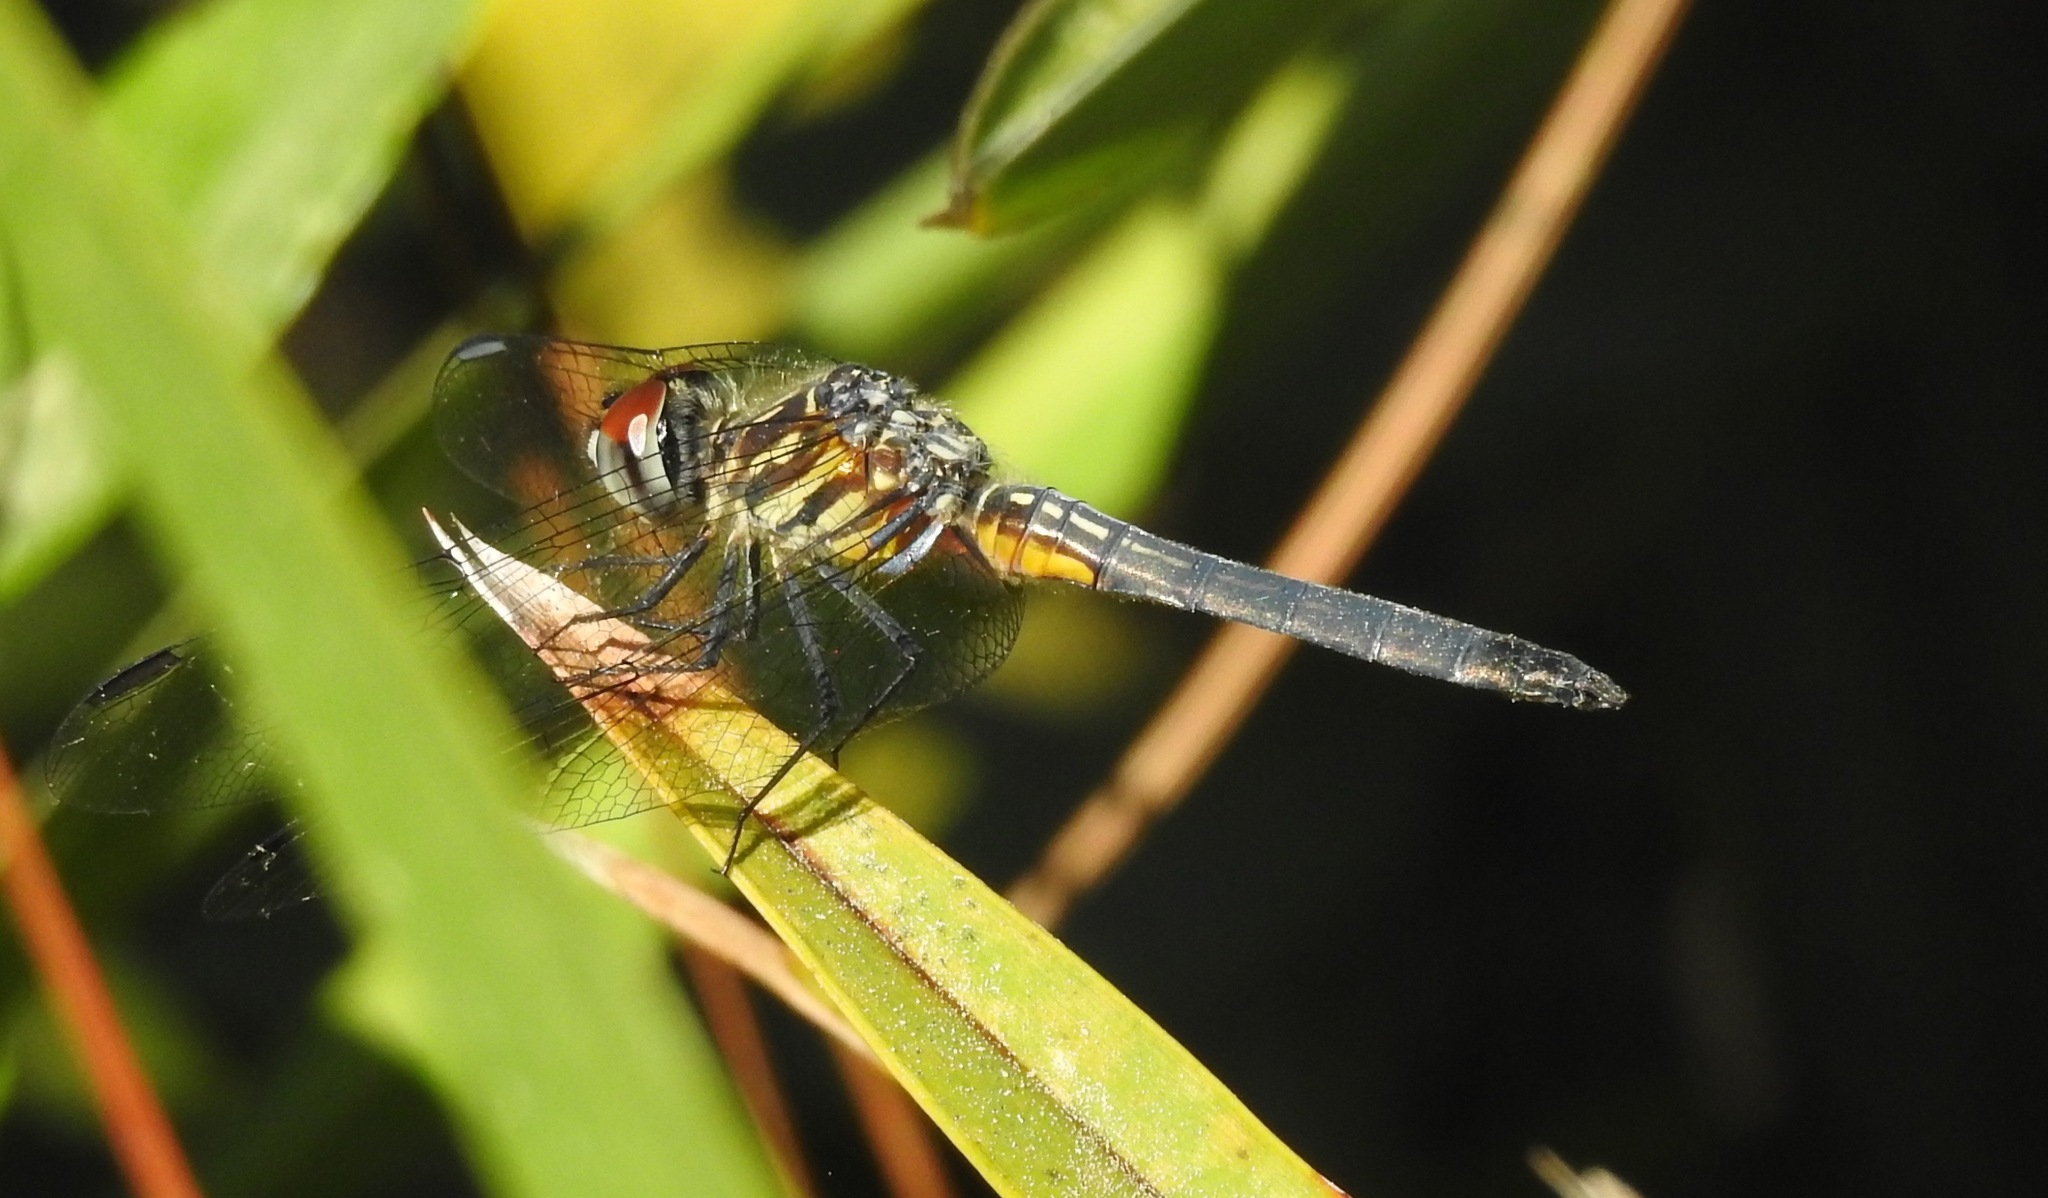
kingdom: Animalia
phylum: Arthropoda
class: Insecta
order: Odonata
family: Libellulidae
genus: Pachydiplax
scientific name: Pachydiplax longipennis
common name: Blue dasher
